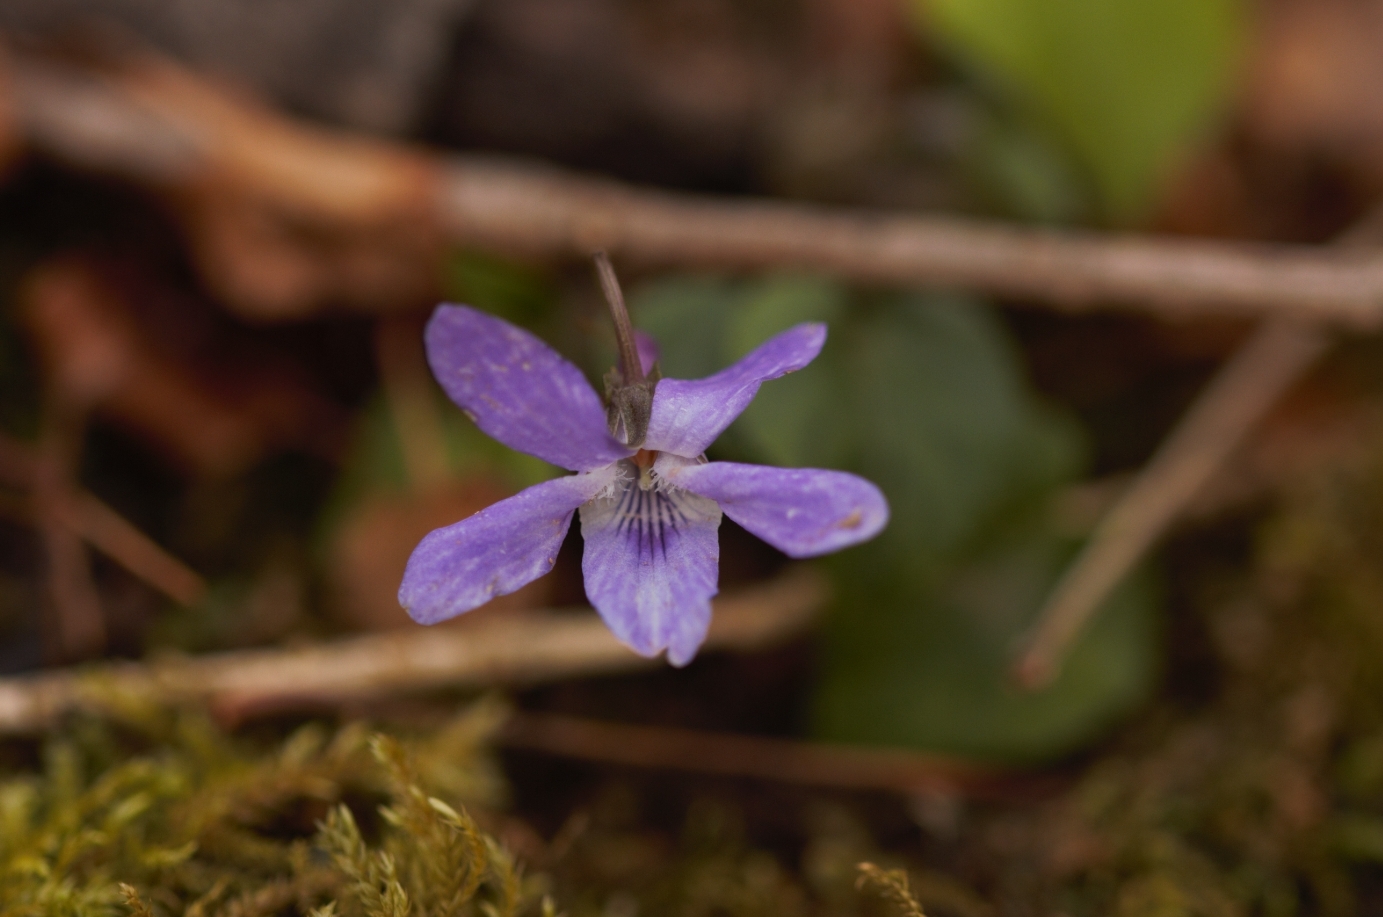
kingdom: Plantae
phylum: Tracheophyta
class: Magnoliopsida
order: Malpighiales
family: Violaceae
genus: Viola
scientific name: Viola reichenbachiana
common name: Early dog-violet
